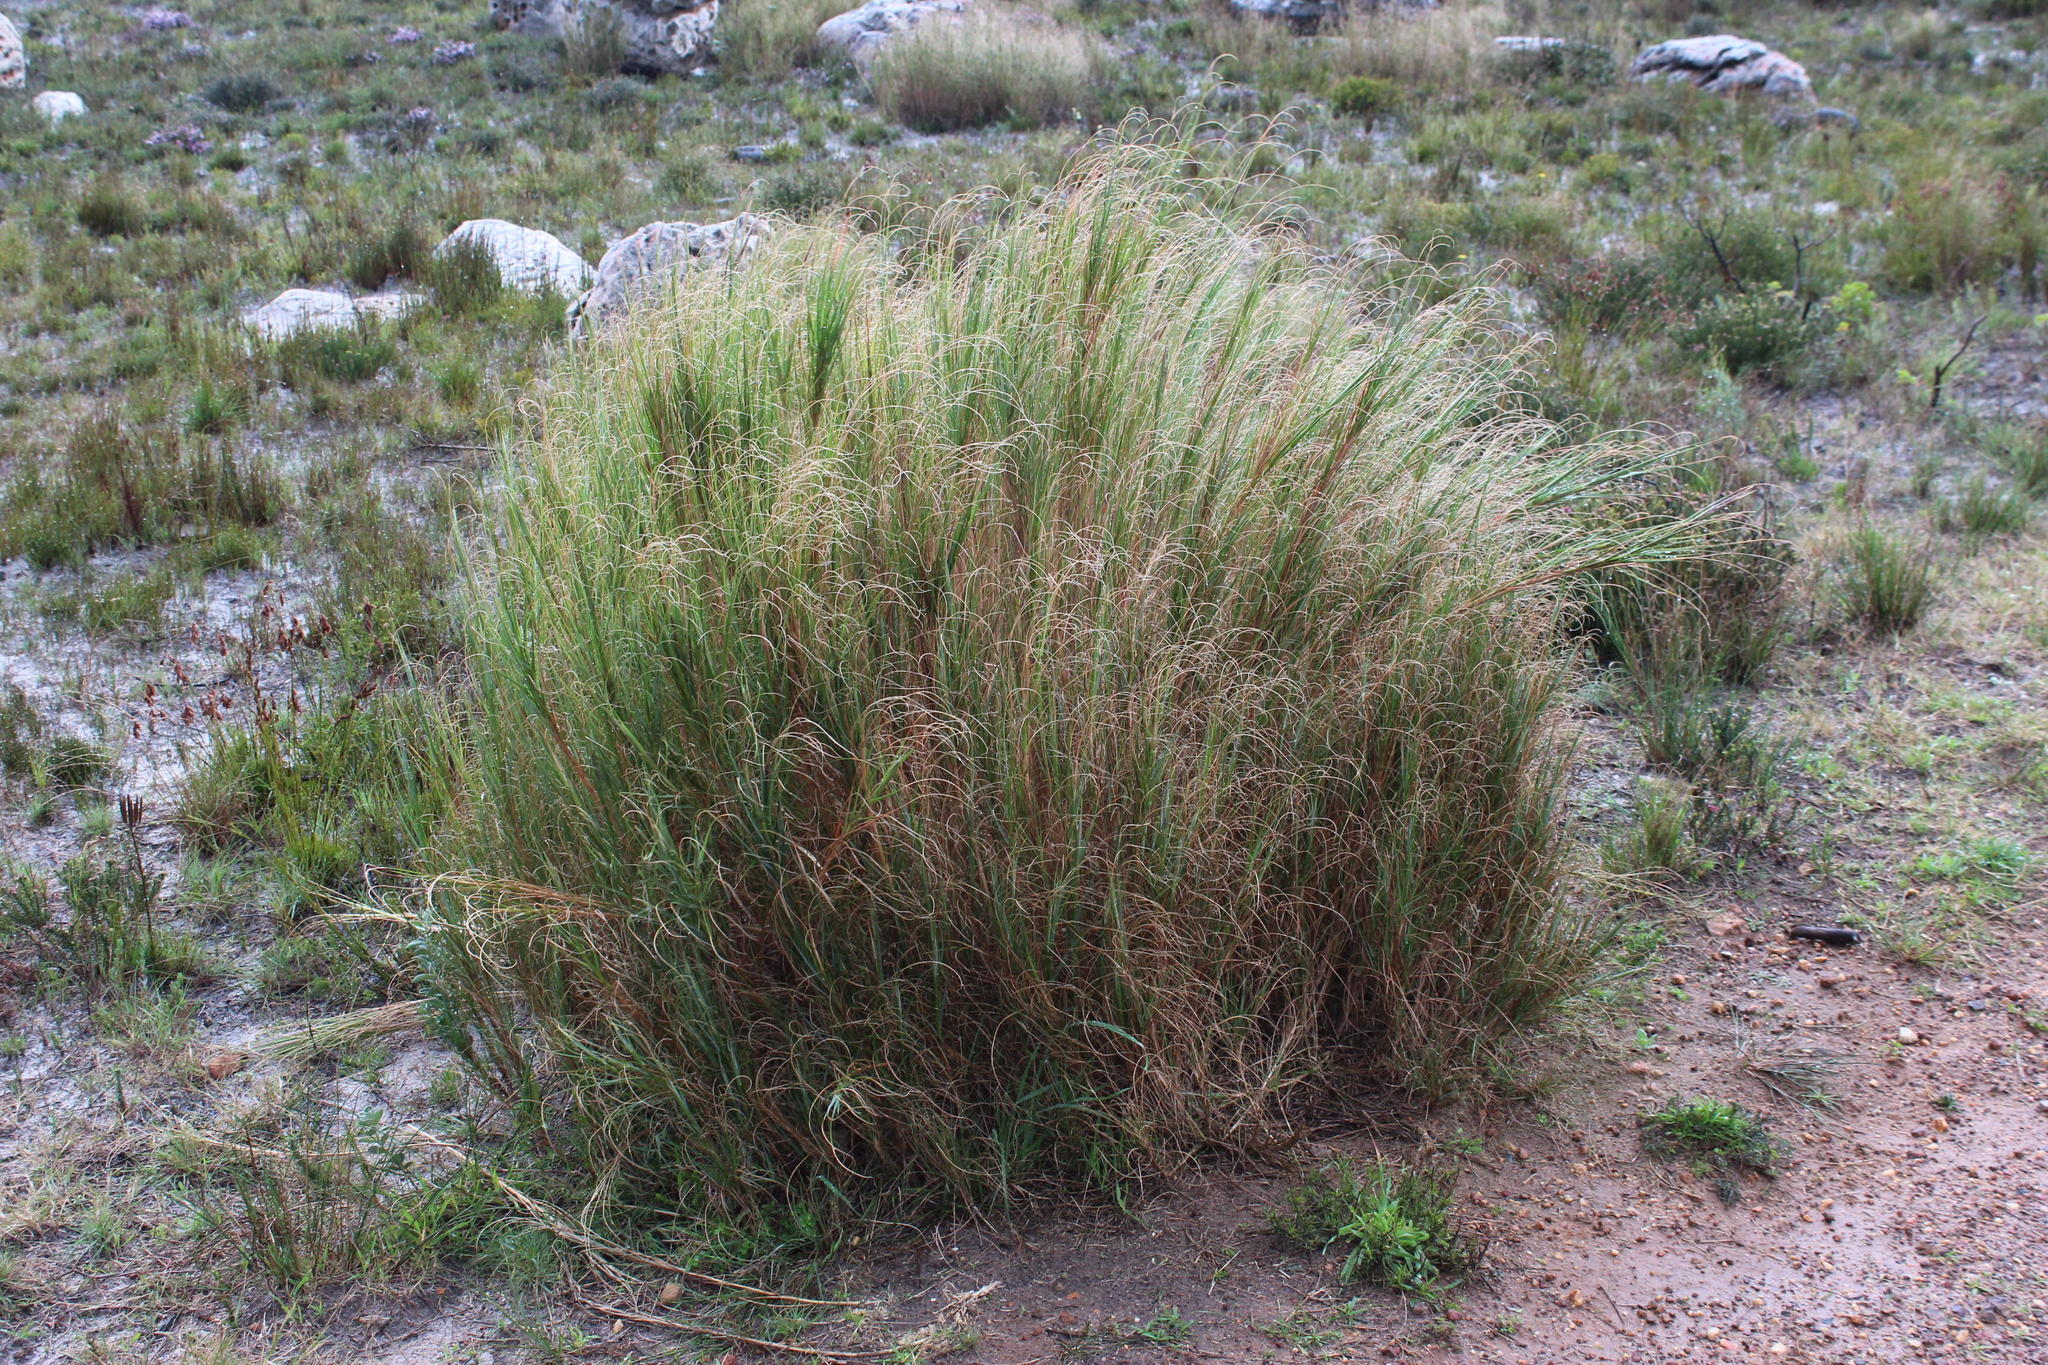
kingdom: Plantae
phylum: Tracheophyta
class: Liliopsida
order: Poales
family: Poaceae
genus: Pseudopentameris
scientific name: Pseudopentameris macrantha
